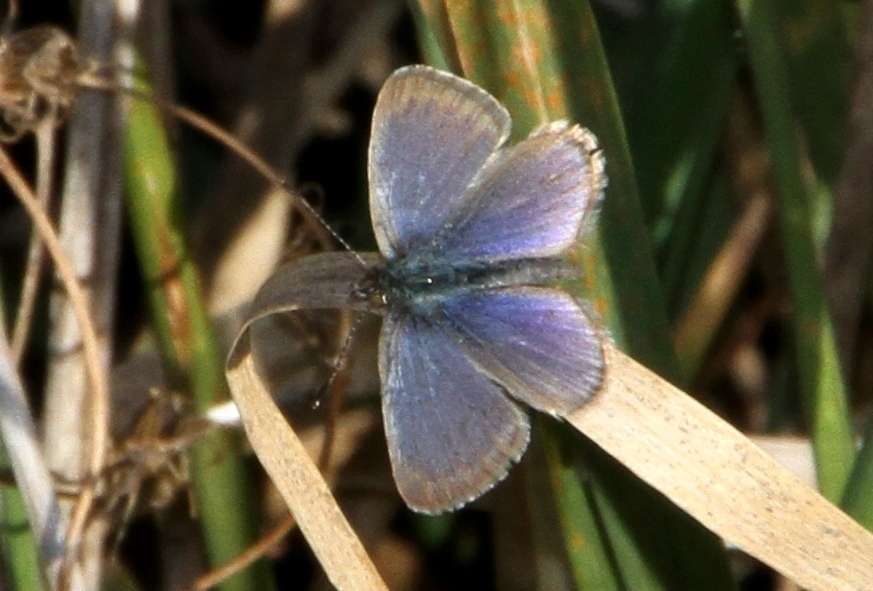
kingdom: Animalia
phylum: Arthropoda
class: Insecta
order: Lepidoptera
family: Lycaenidae
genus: Zizina
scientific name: Zizina labradus
